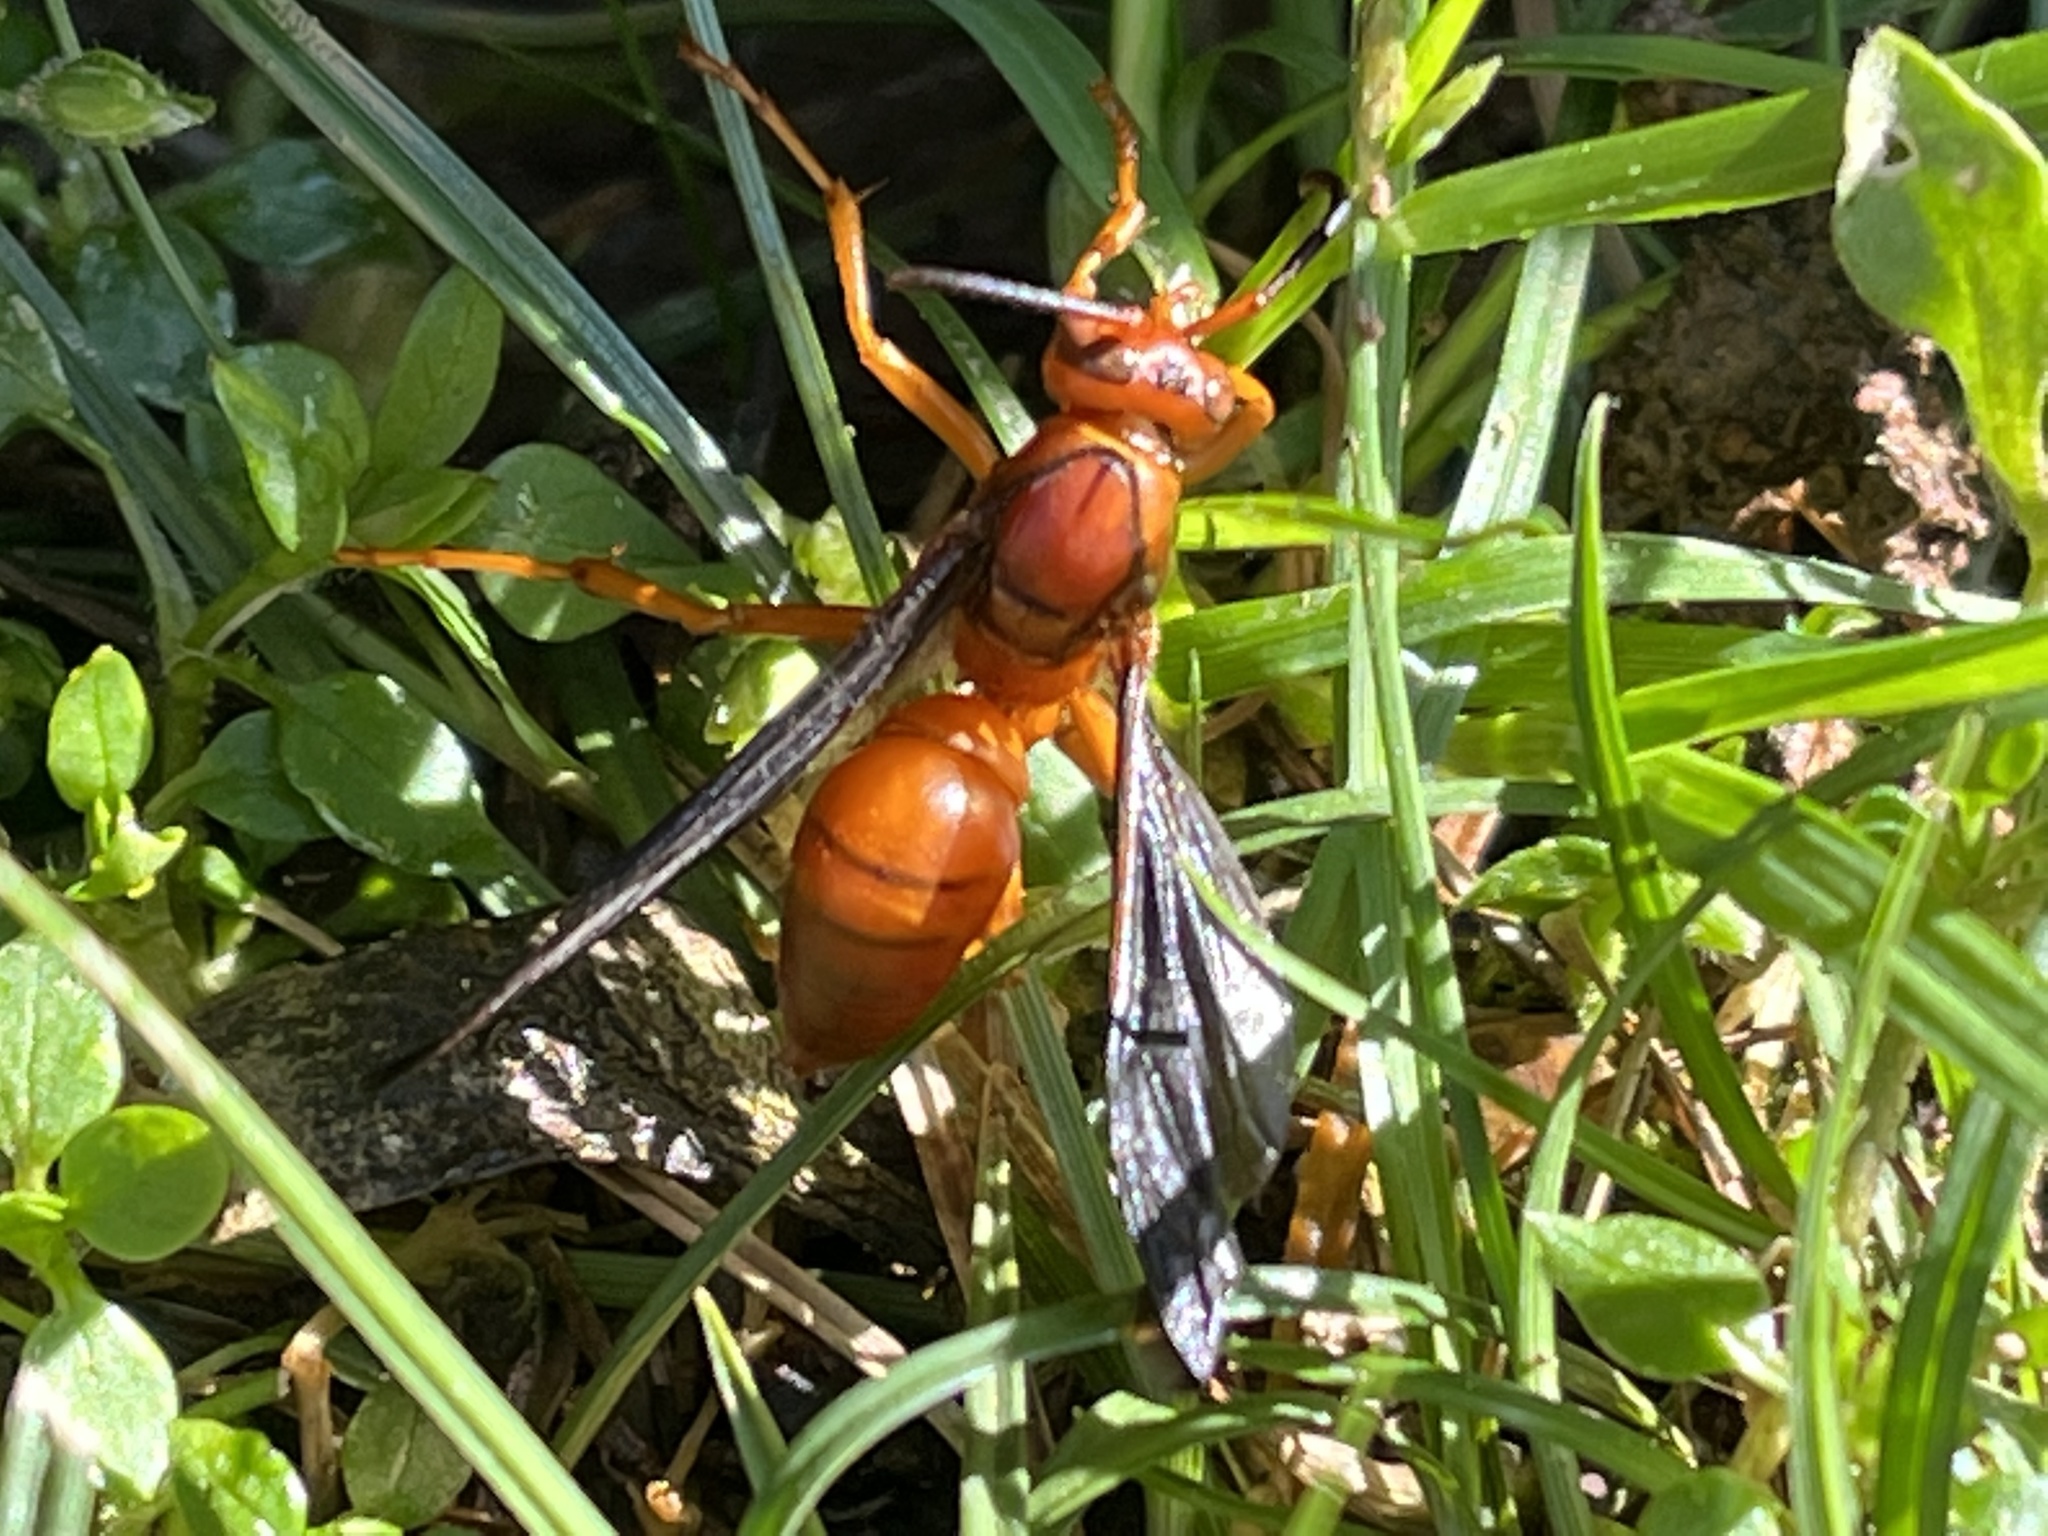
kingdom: Animalia
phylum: Arthropoda
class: Insecta
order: Hymenoptera
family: Eumenidae
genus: Polistes
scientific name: Polistes carolina
